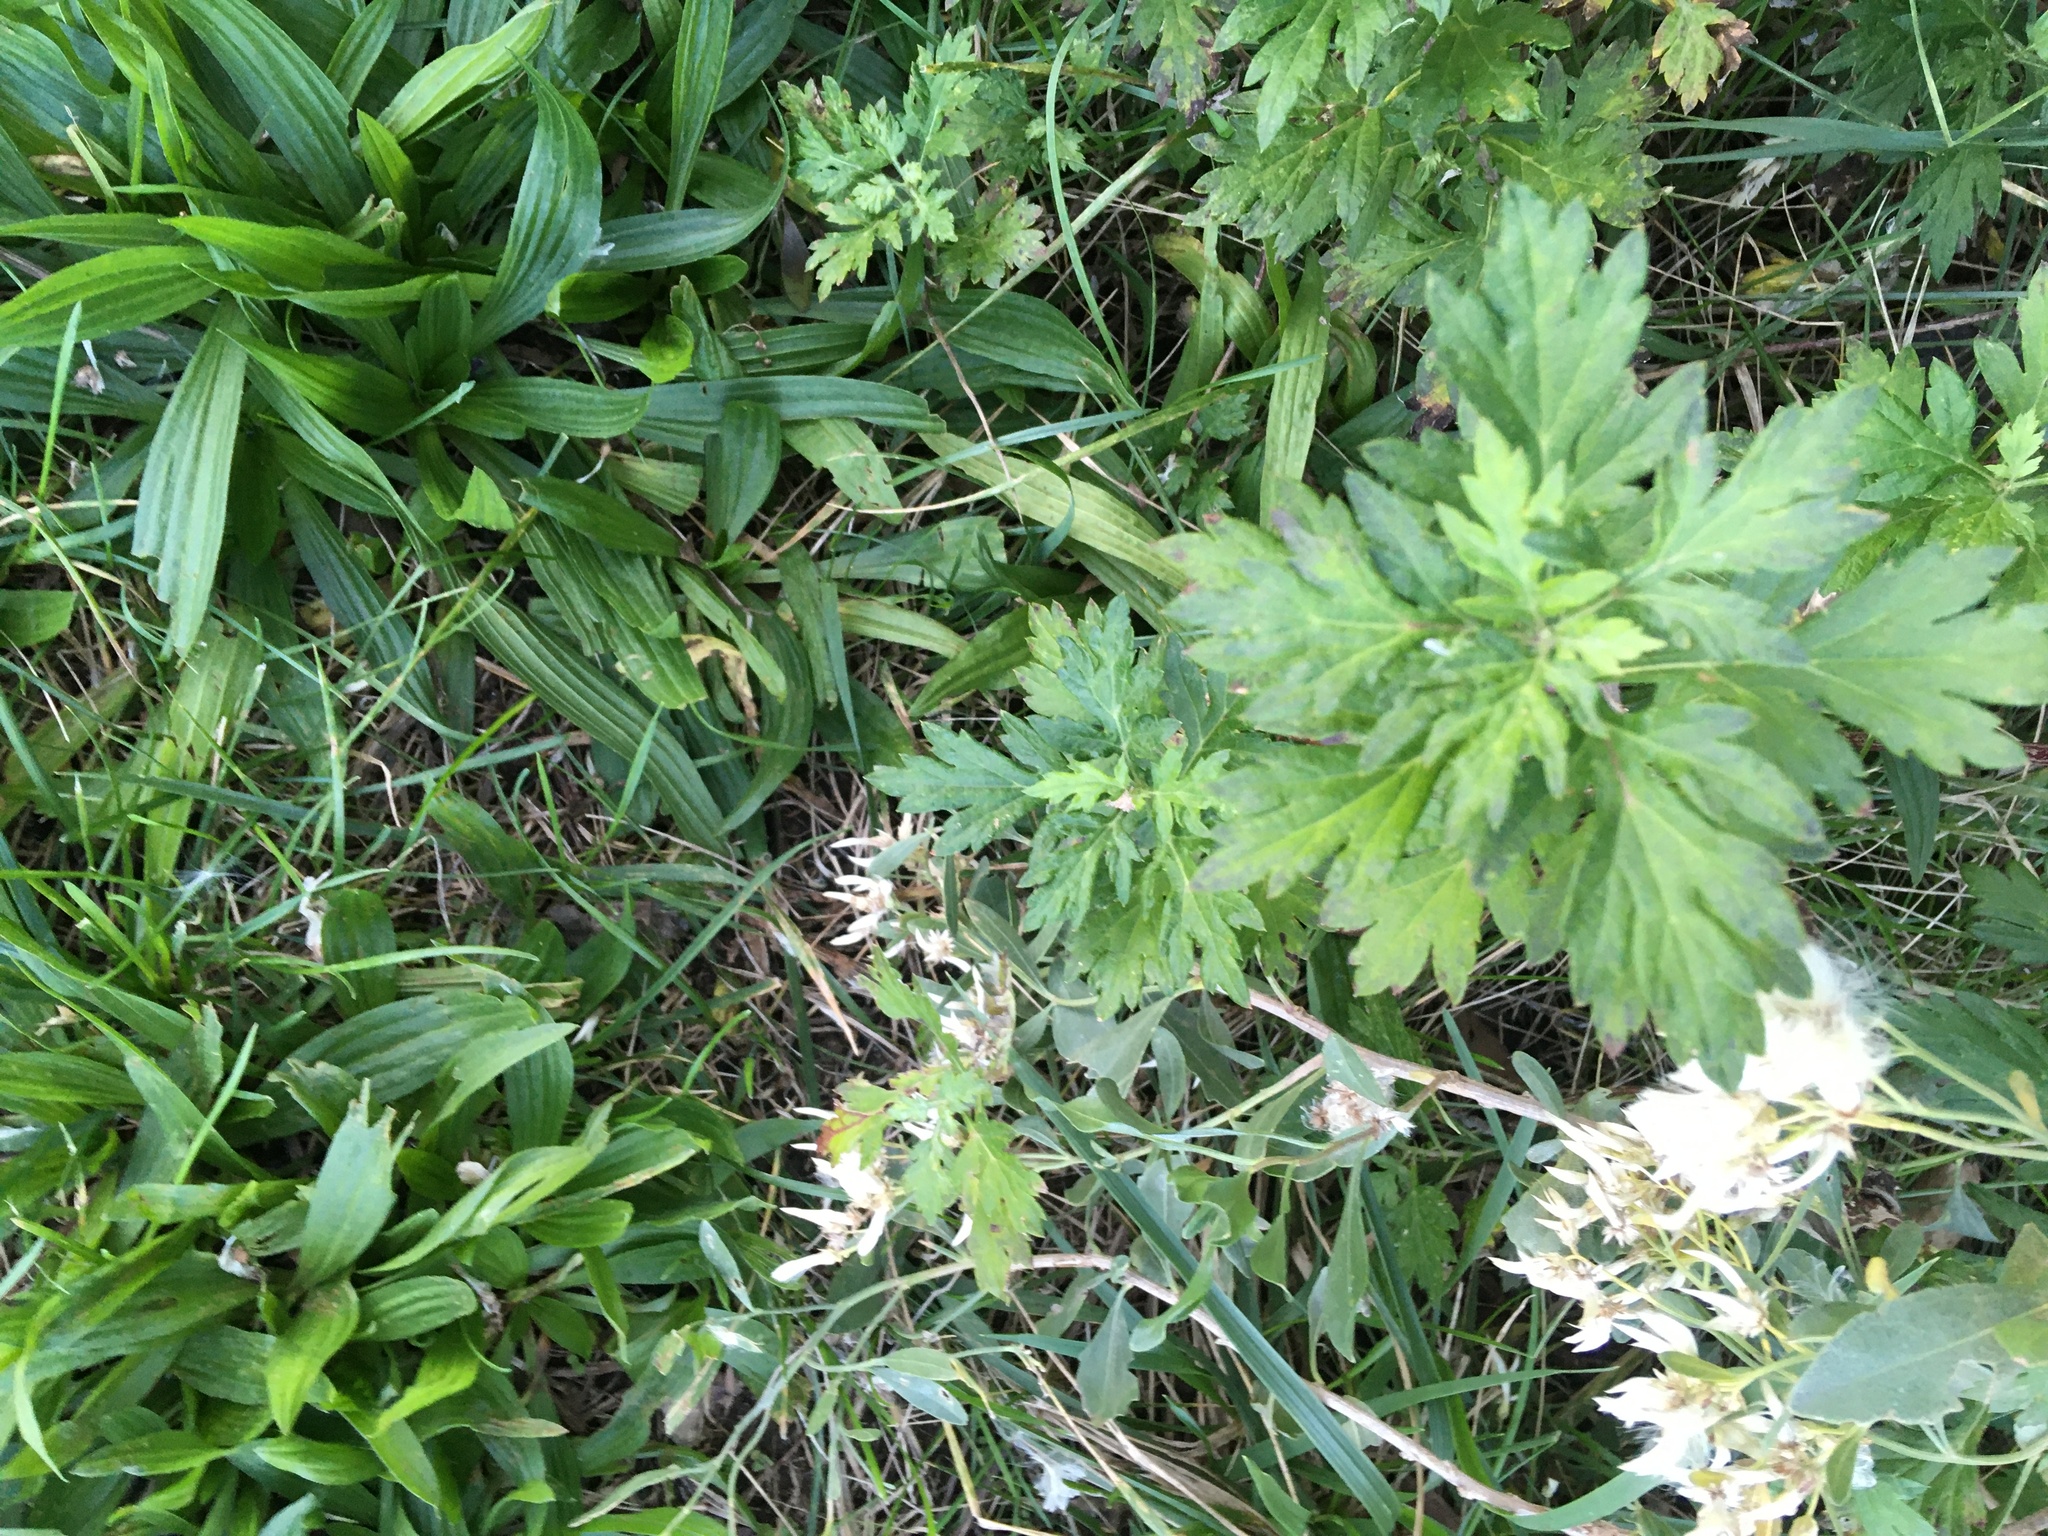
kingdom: Plantae
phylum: Tracheophyta
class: Magnoliopsida
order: Asterales
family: Asteraceae
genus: Artemisia
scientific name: Artemisia vulgaris
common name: Mugwort
